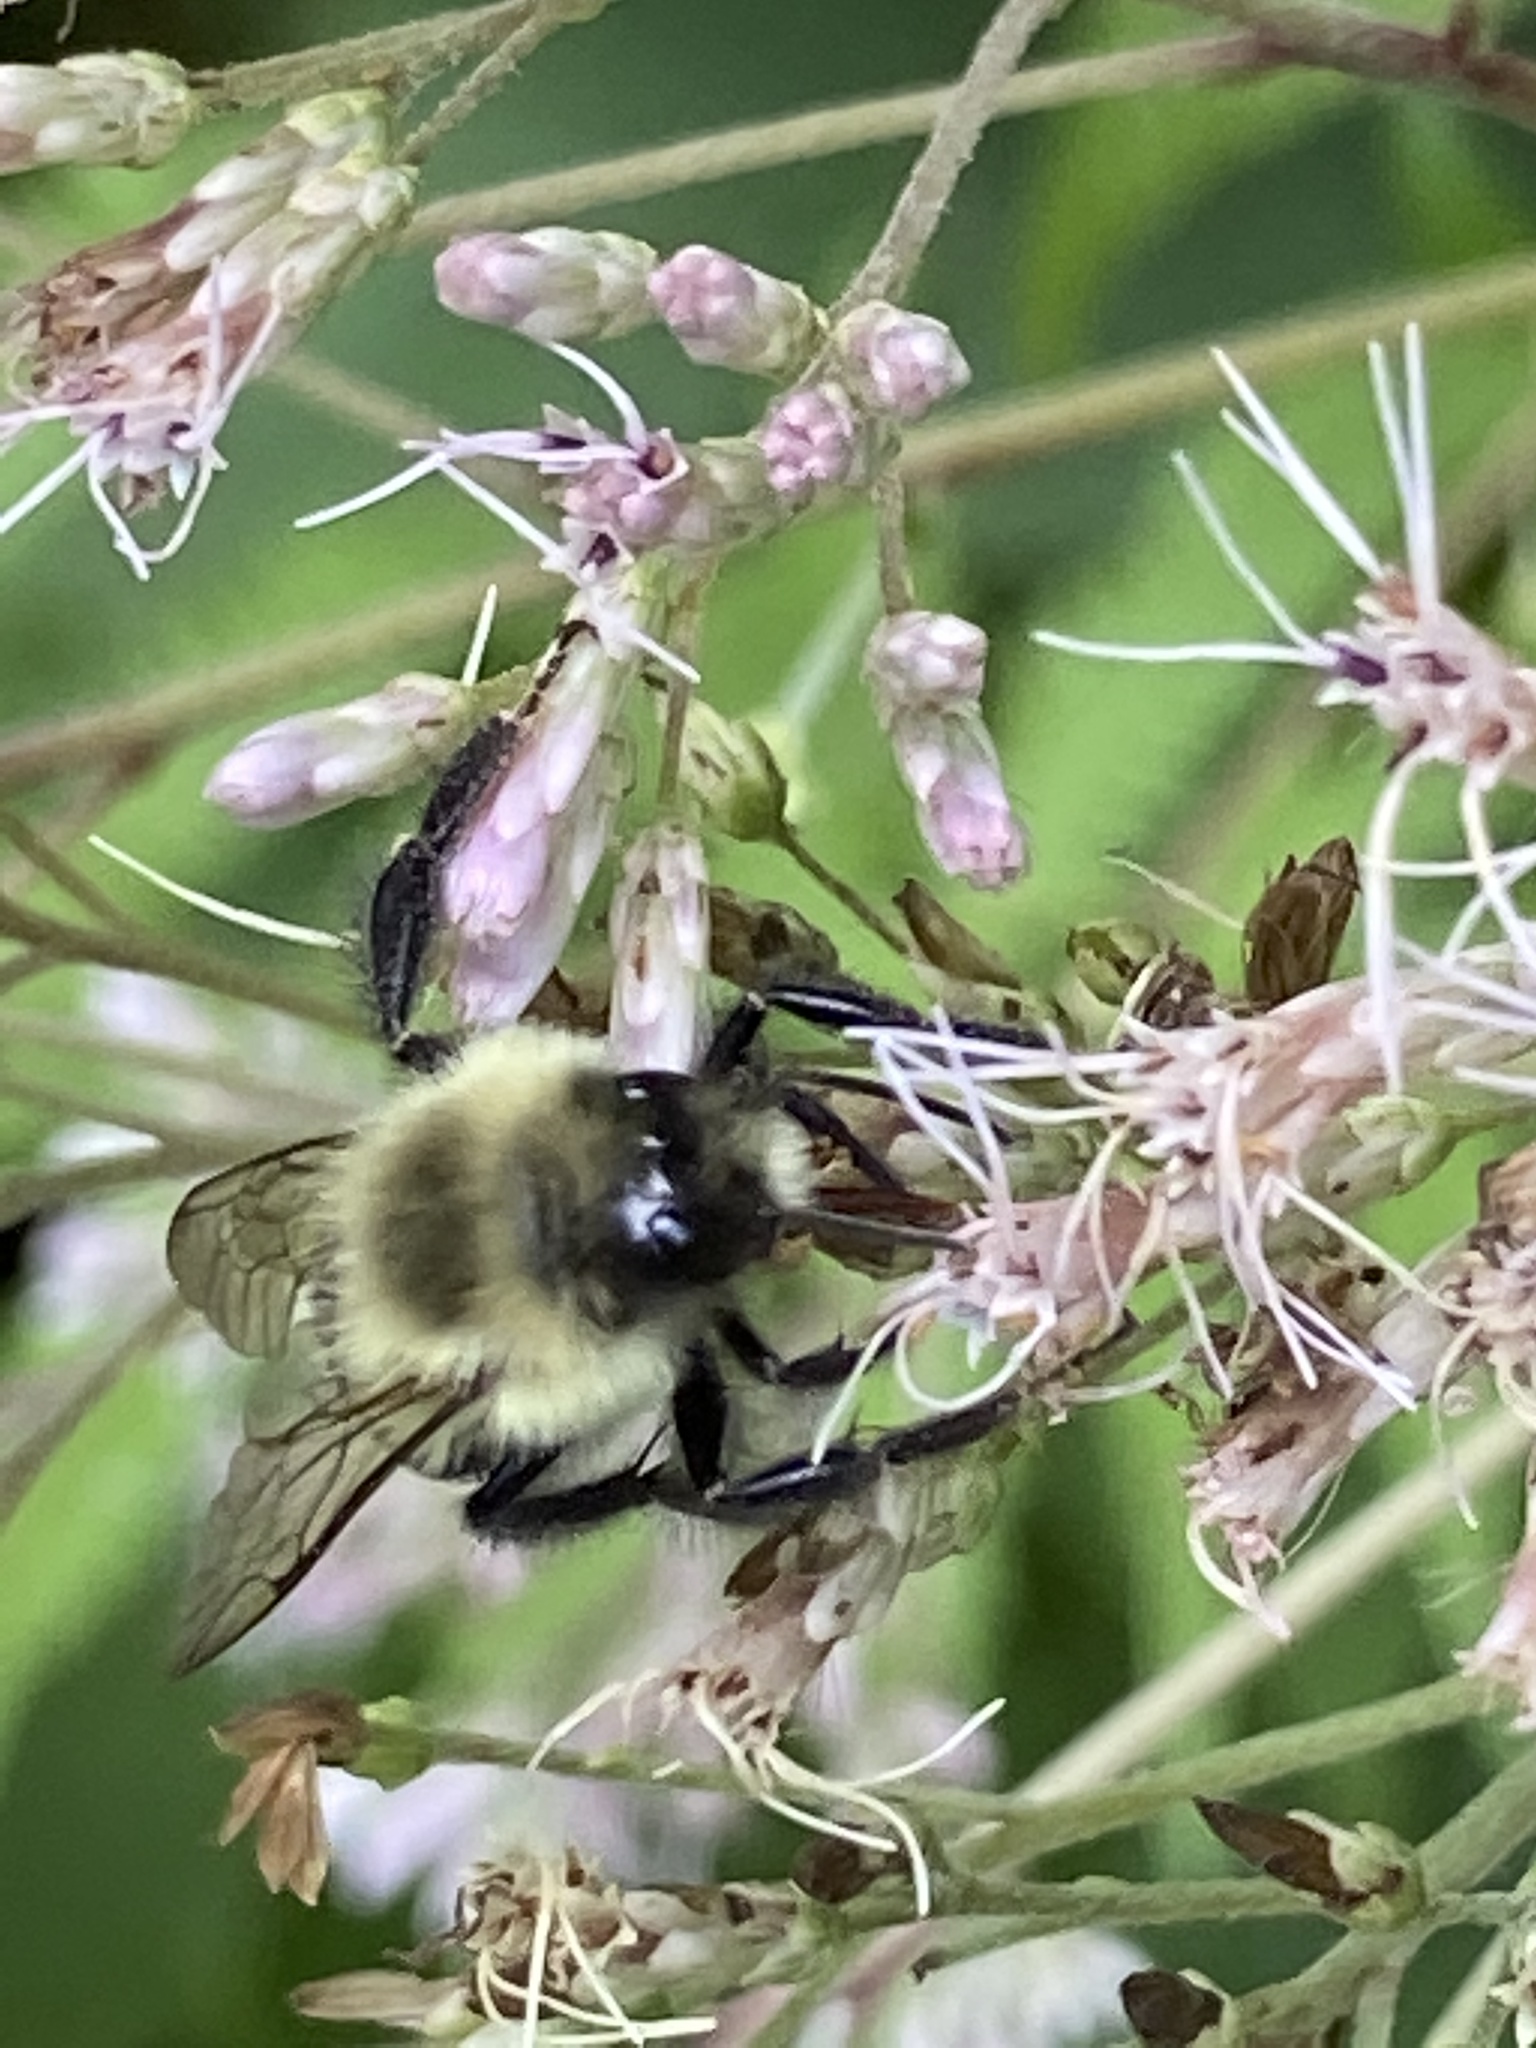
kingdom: Animalia
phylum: Arthropoda
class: Insecta
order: Hymenoptera
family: Apidae
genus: Bombus
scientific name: Bombus impatiens
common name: Common eastern bumble bee
